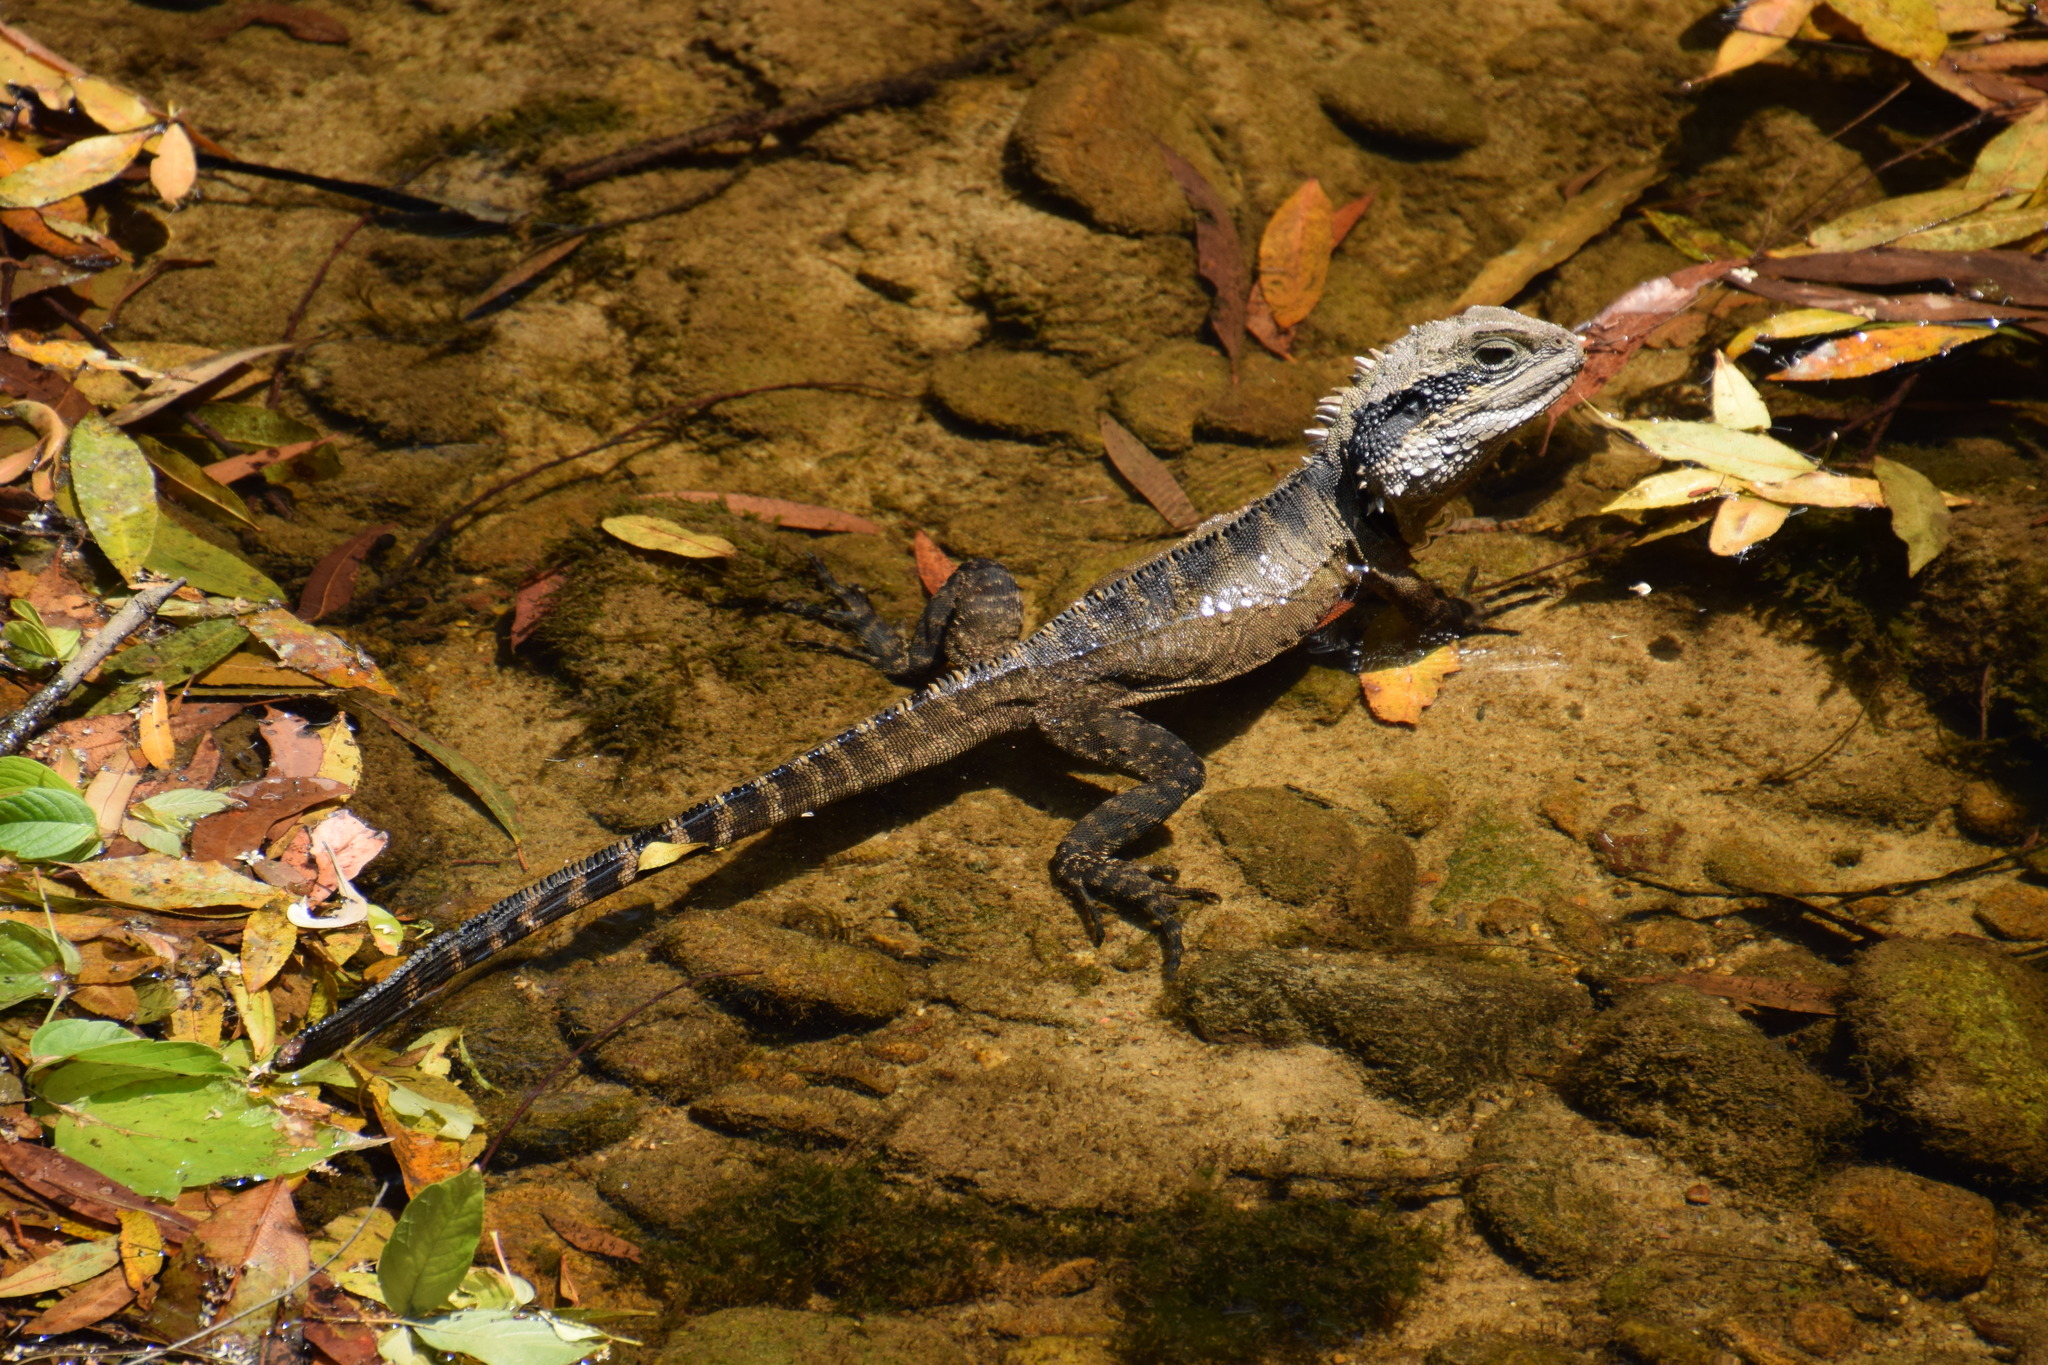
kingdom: Animalia
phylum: Chordata
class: Squamata
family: Agamidae
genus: Intellagama
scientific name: Intellagama lesueurii
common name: Eastern water dragon
